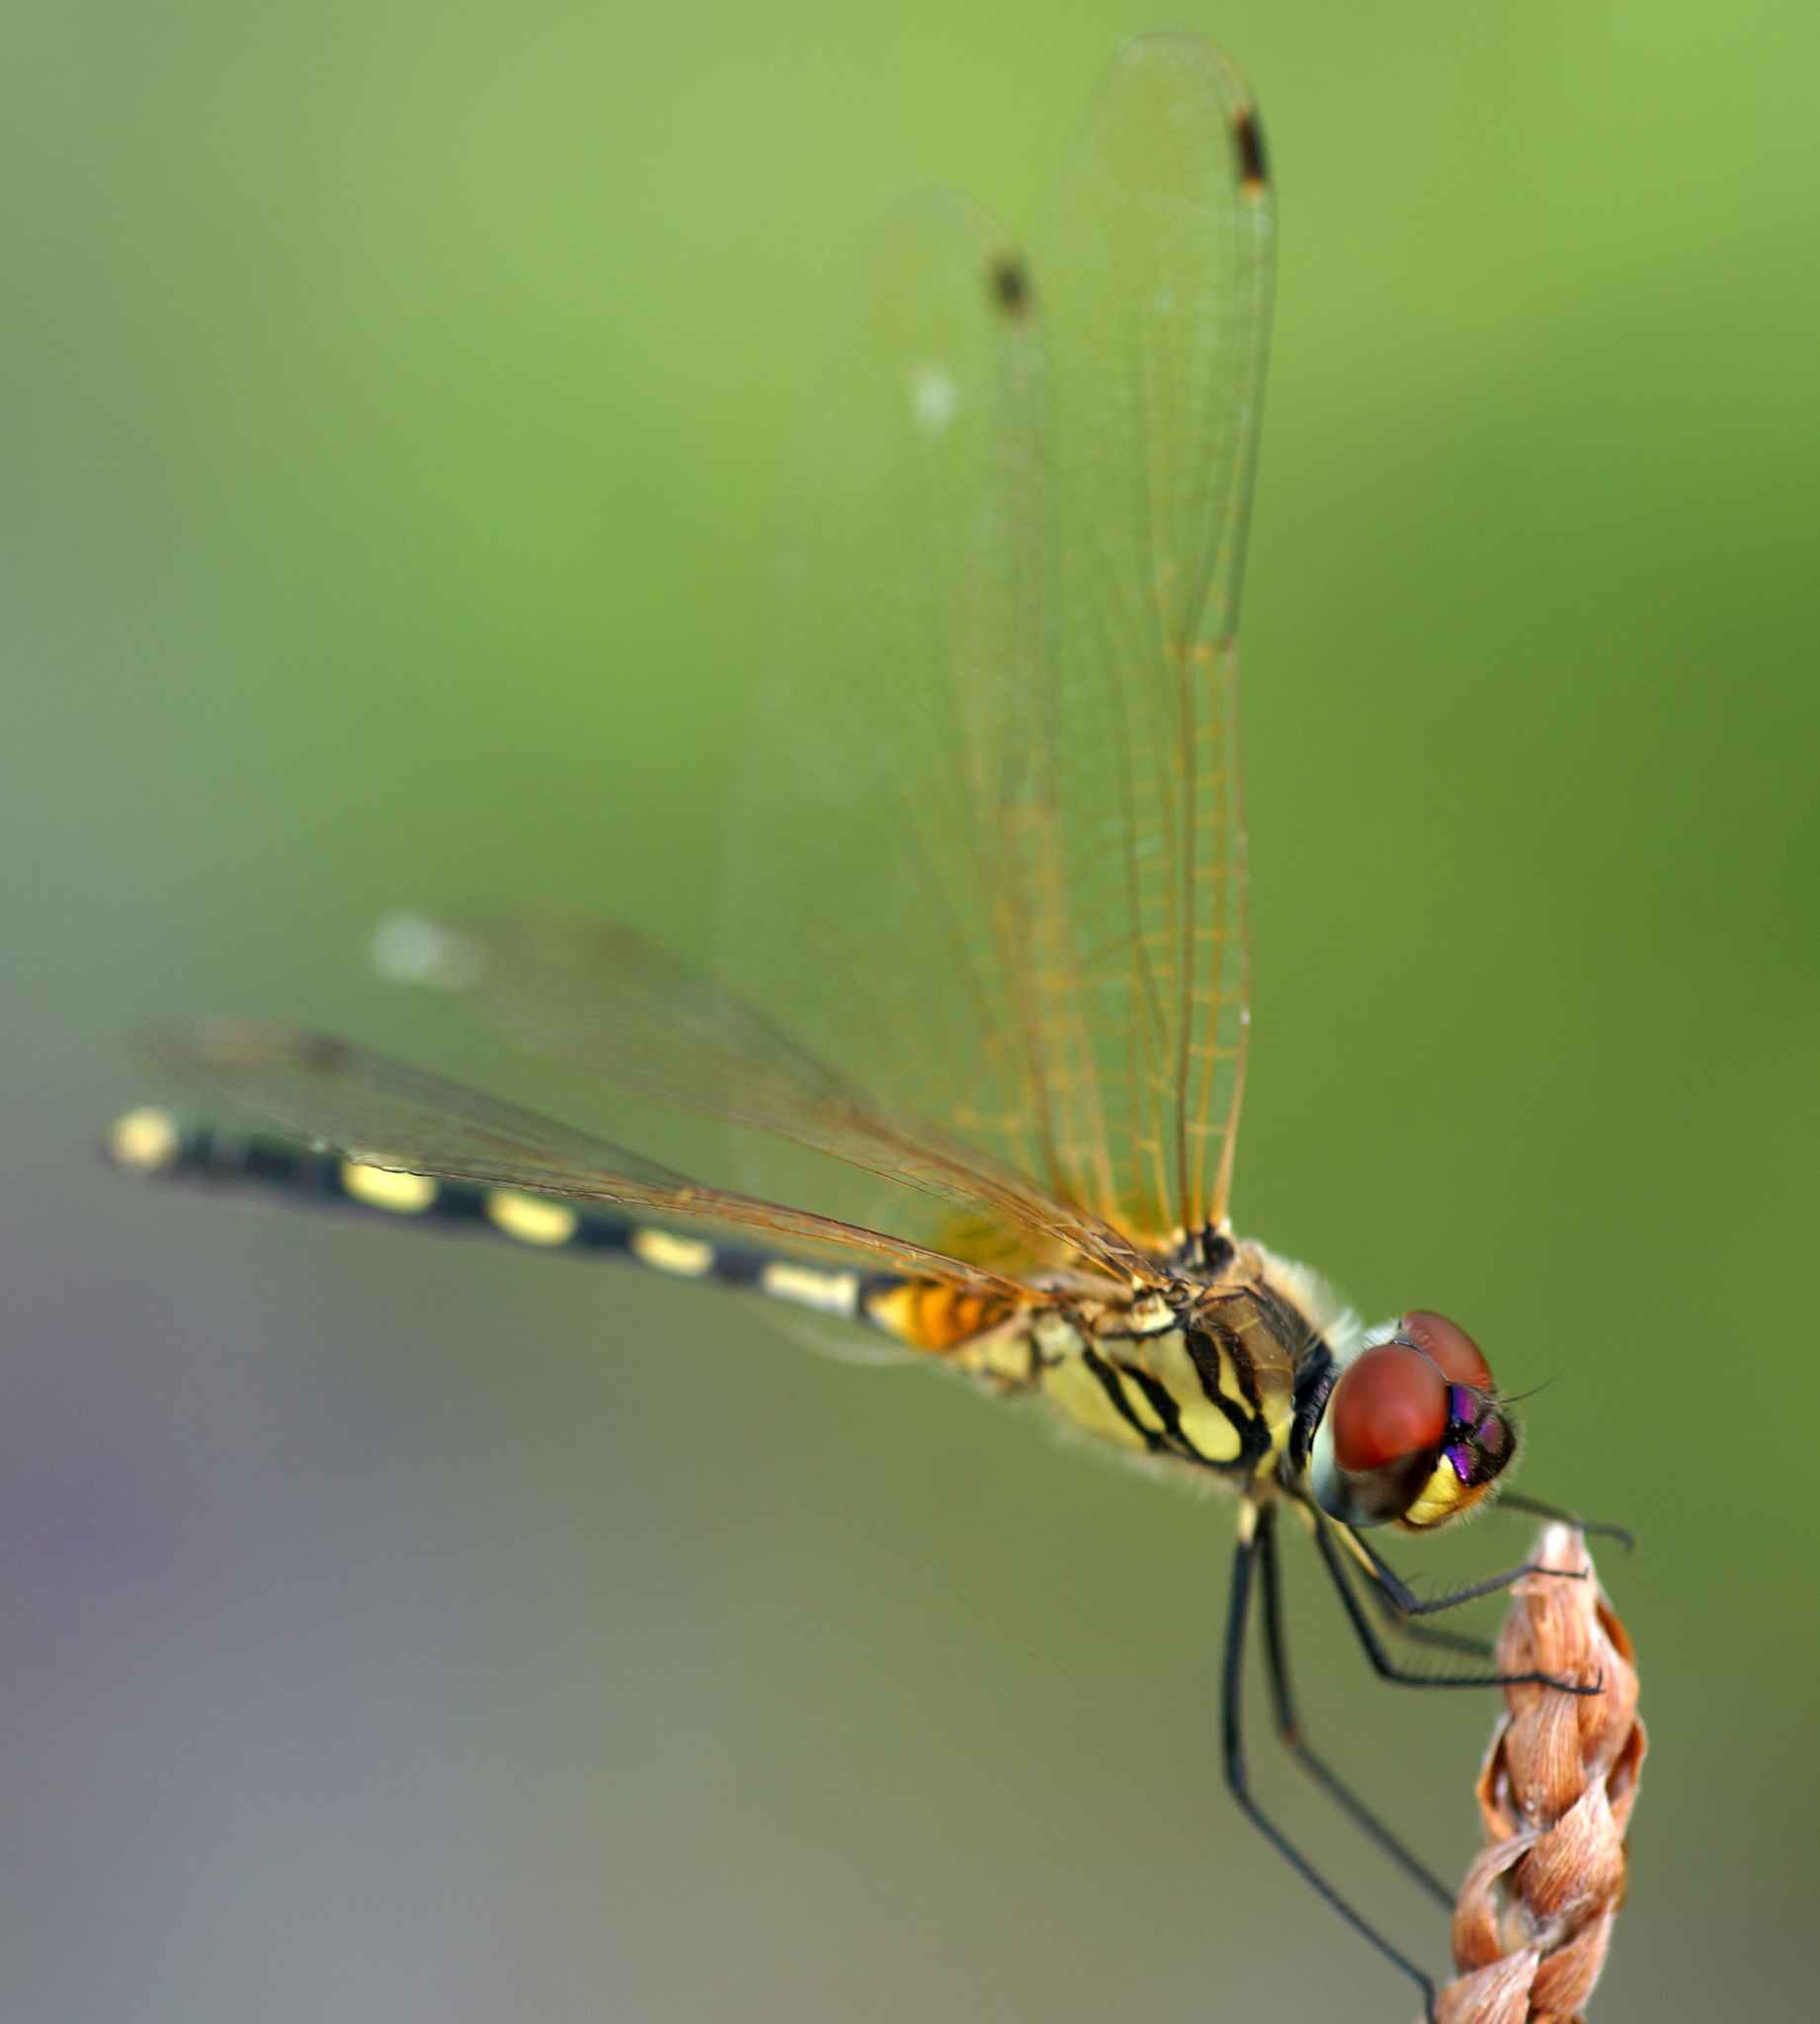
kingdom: Animalia
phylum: Arthropoda
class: Insecta
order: Odonata
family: Libellulidae
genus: Trithemis
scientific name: Trithemis pallidinervis
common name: Dancing dropwing
